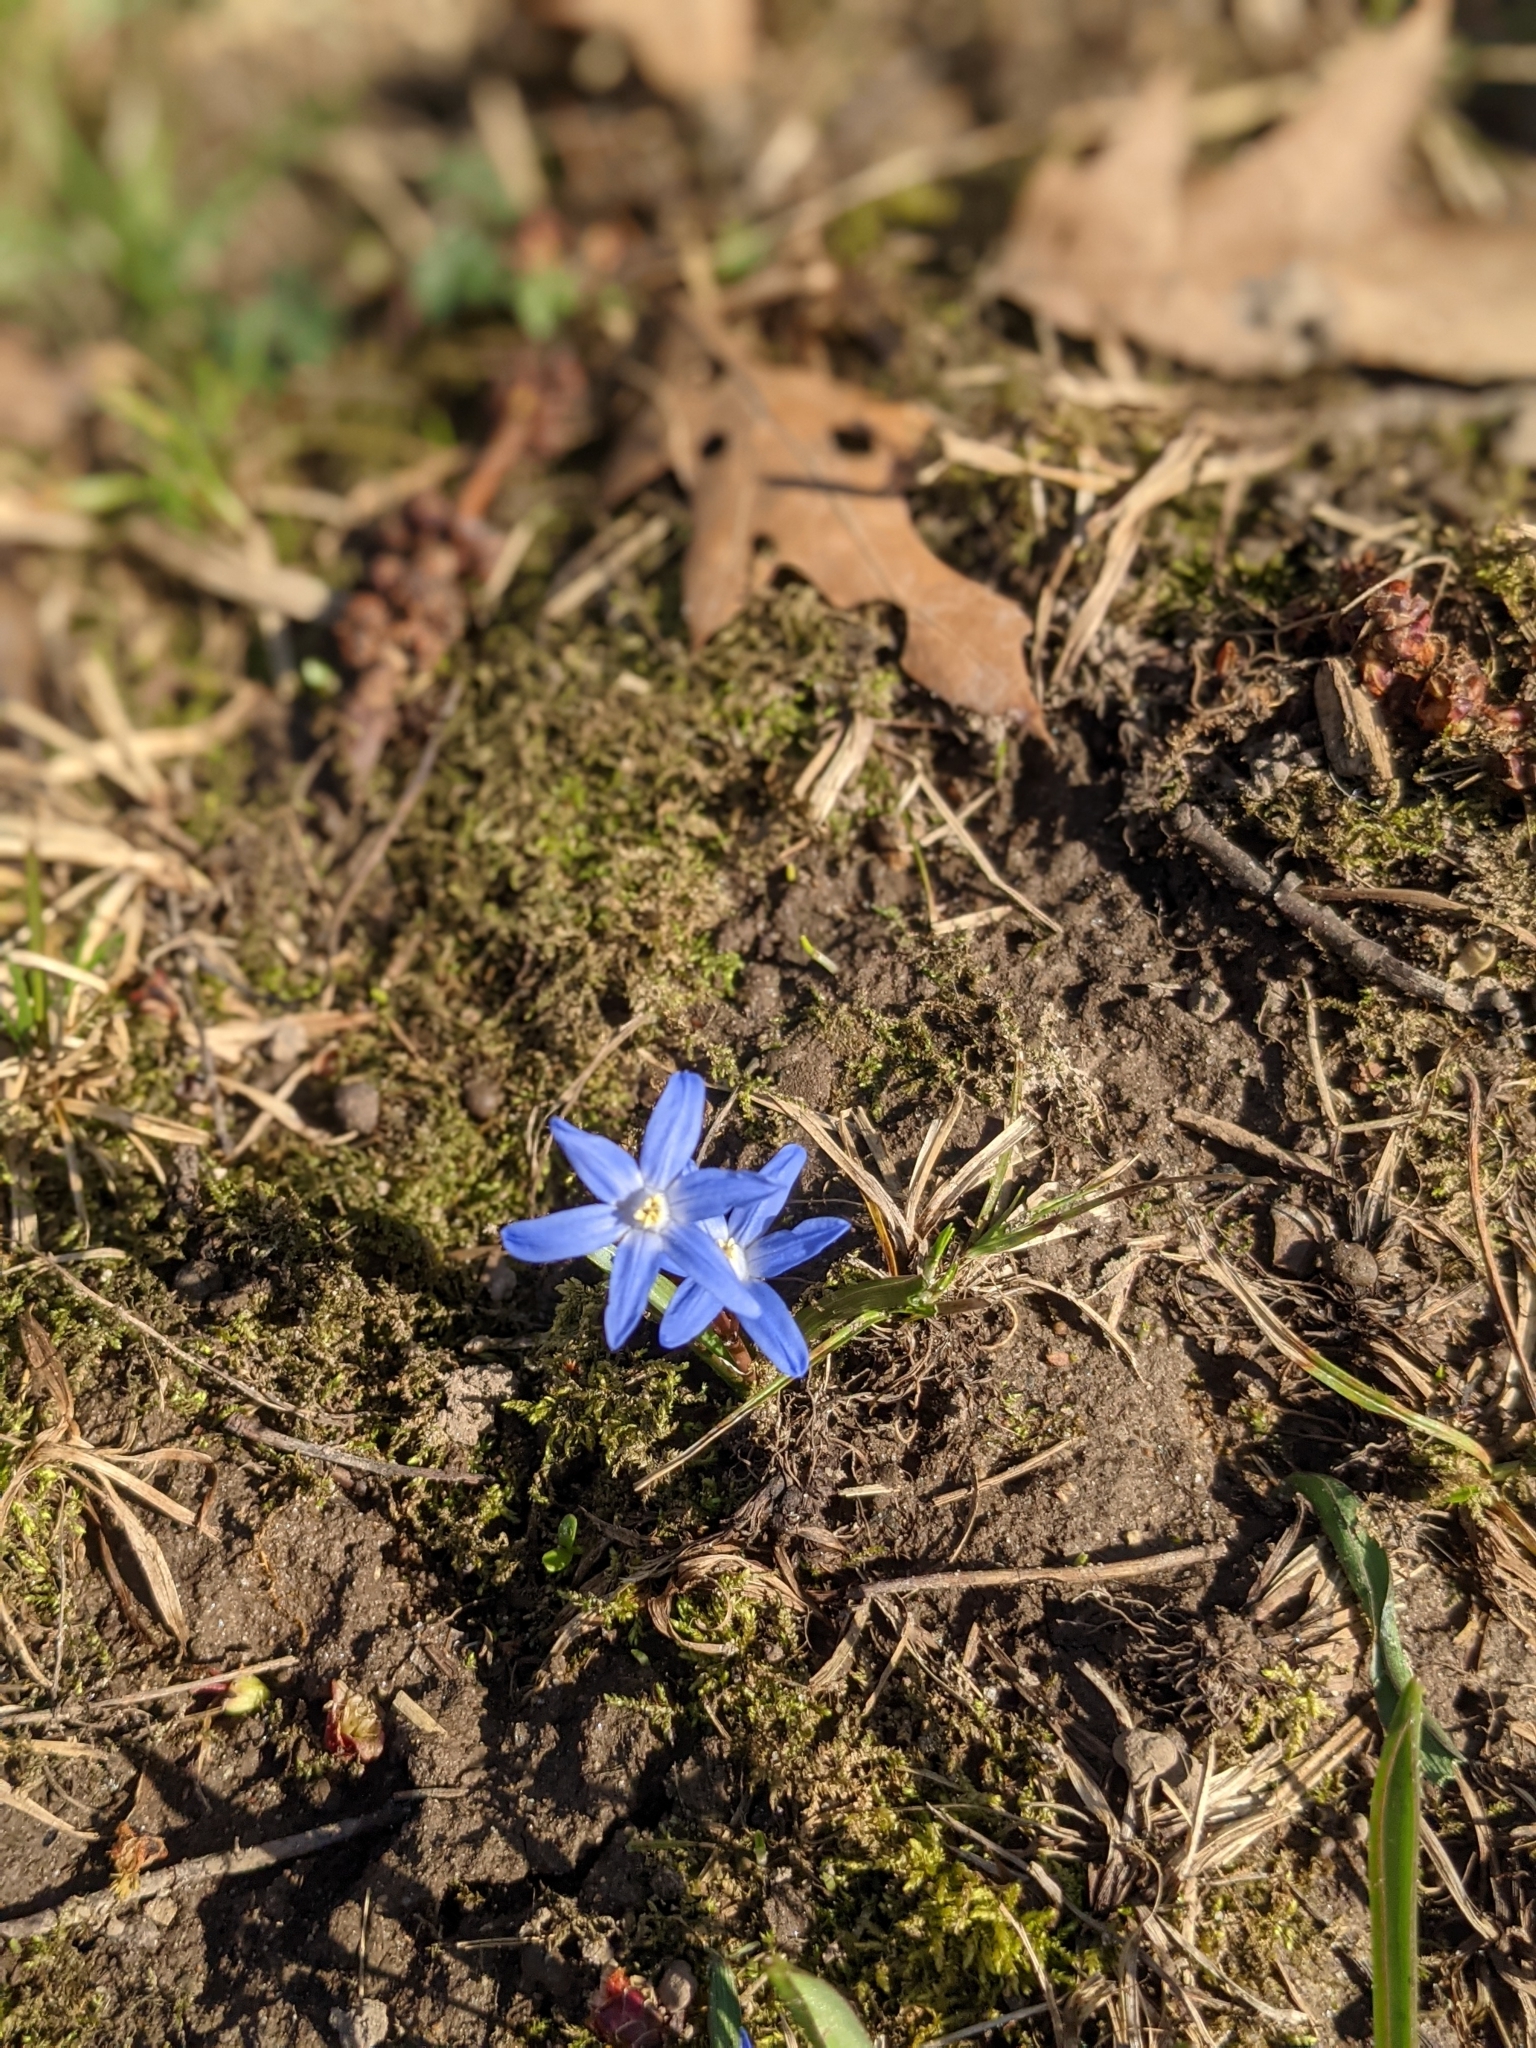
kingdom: Plantae
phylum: Tracheophyta
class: Liliopsida
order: Asparagales
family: Asparagaceae
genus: Scilla
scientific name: Scilla luciliae
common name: Boissier's glory-of-the-snow
